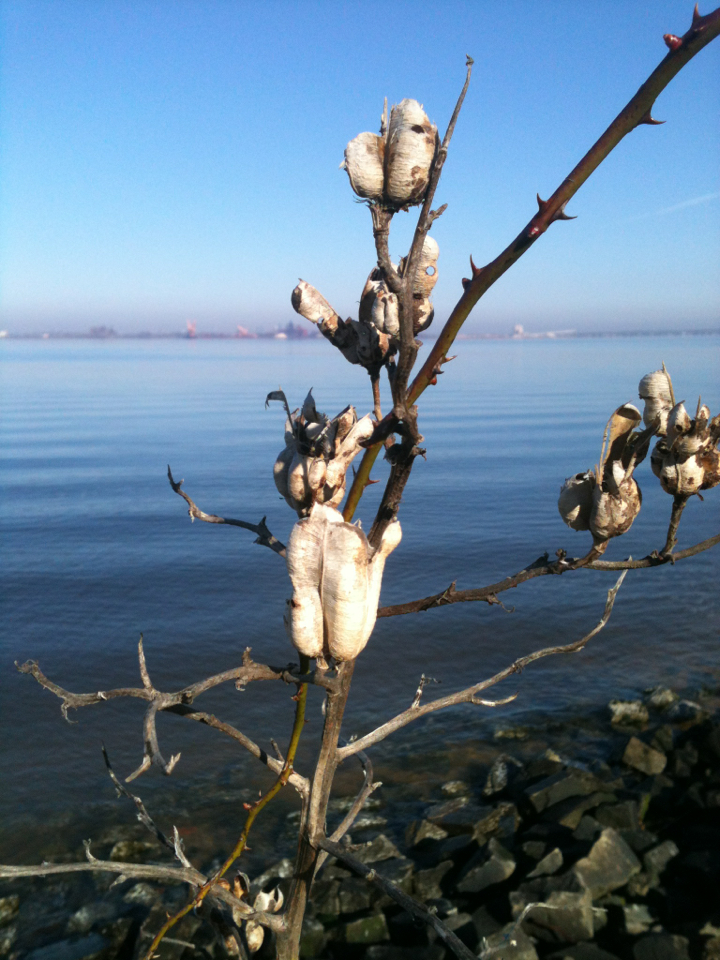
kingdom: Plantae
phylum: Tracheophyta
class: Liliopsida
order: Asparagales
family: Asparagaceae
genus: Yucca
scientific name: Yucca filamentosa
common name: Adam's-needle
